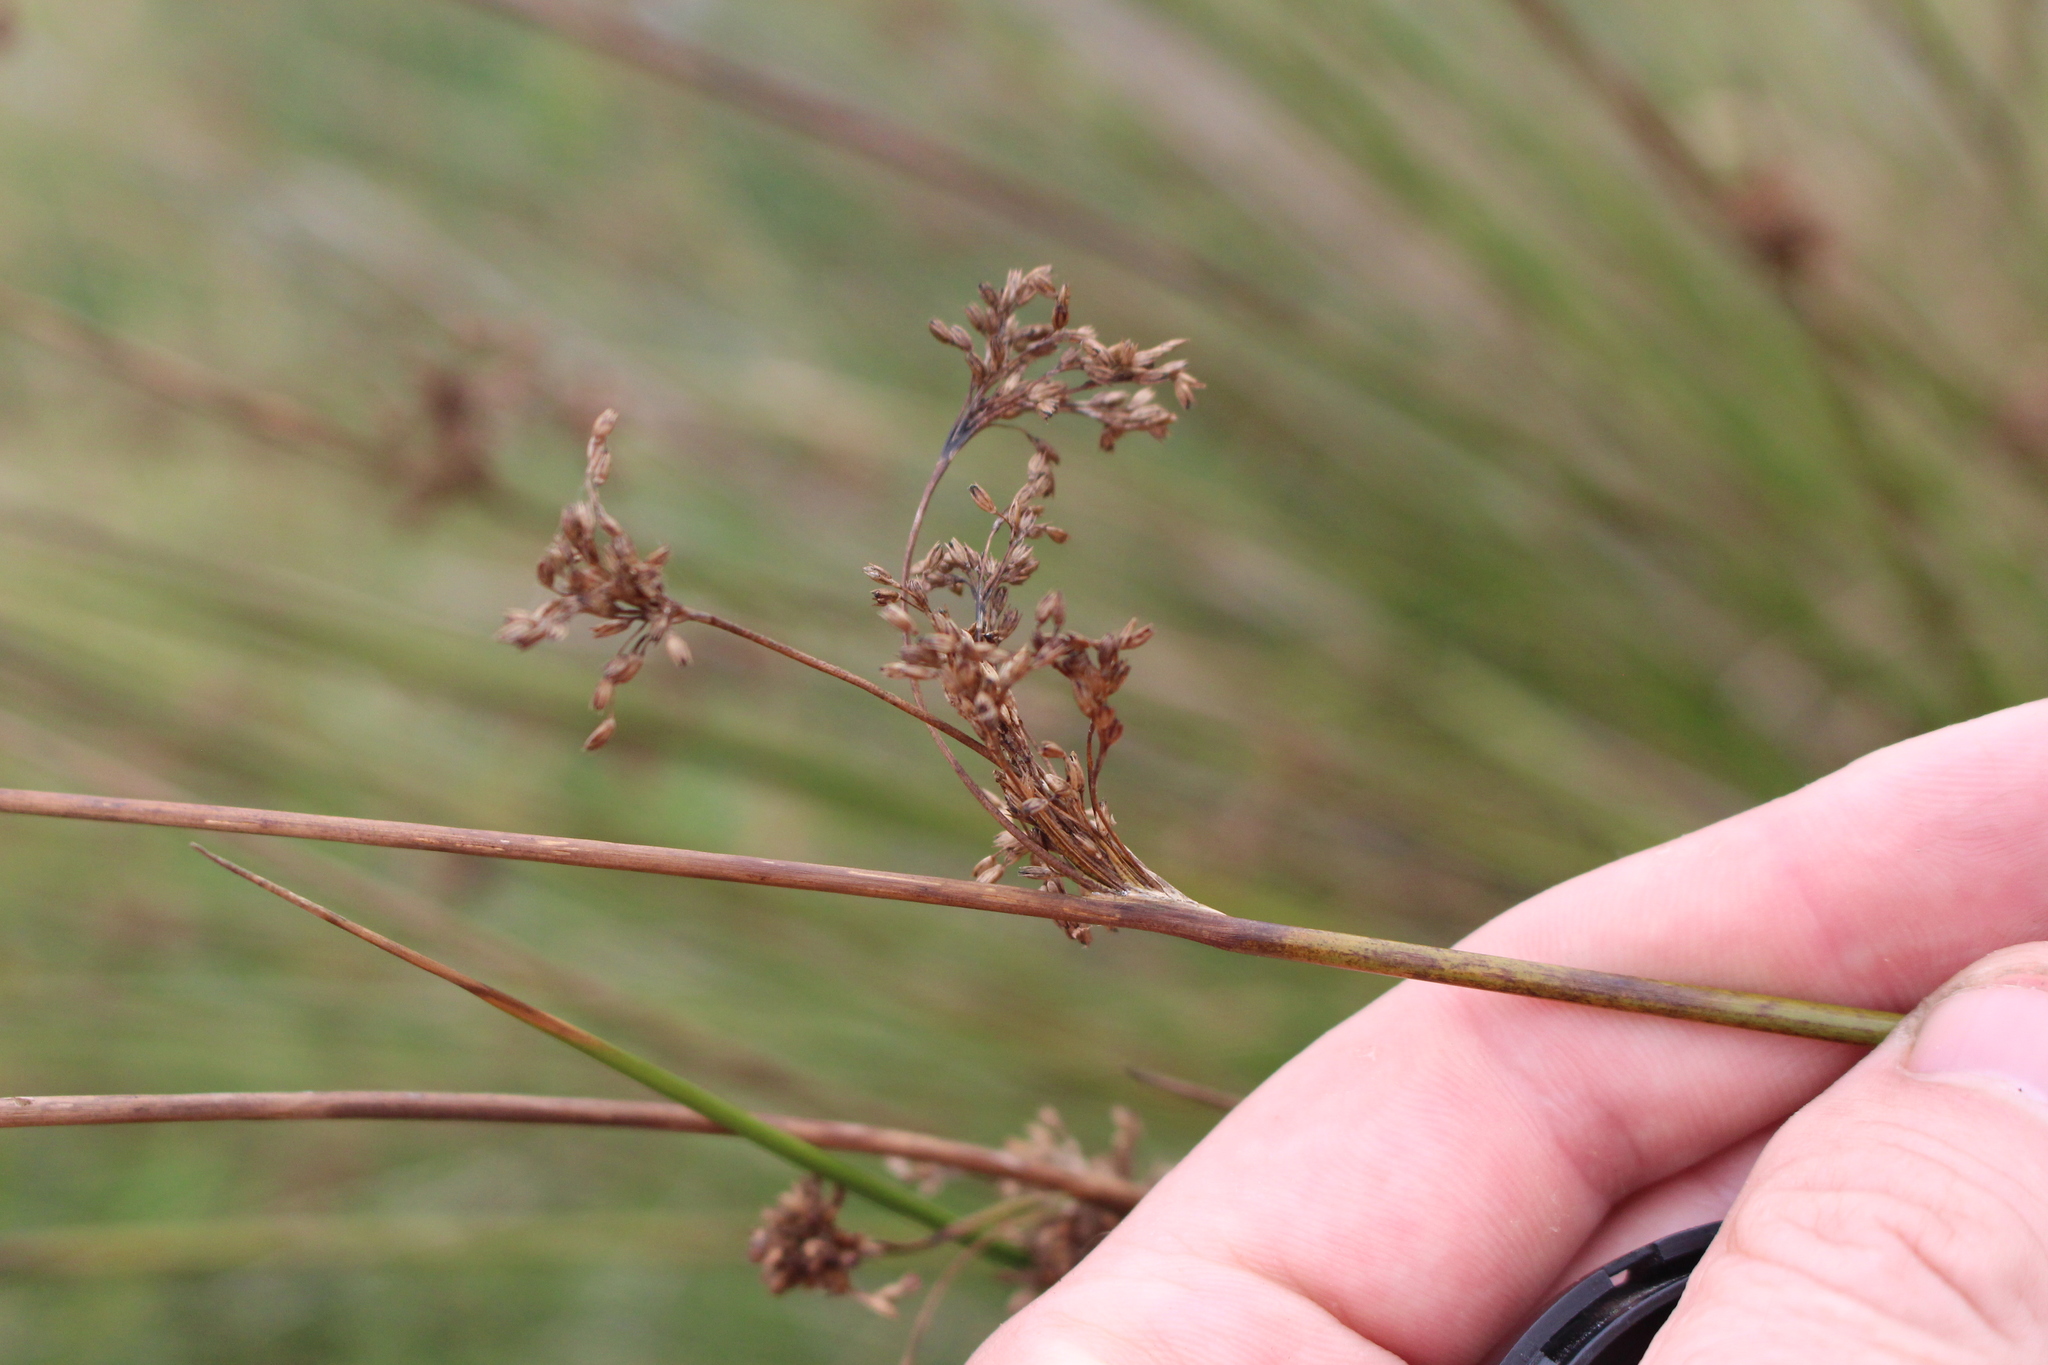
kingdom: Plantae
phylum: Tracheophyta
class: Liliopsida
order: Poales
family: Juncaceae
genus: Juncus
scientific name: Juncus effusus
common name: Soft rush
